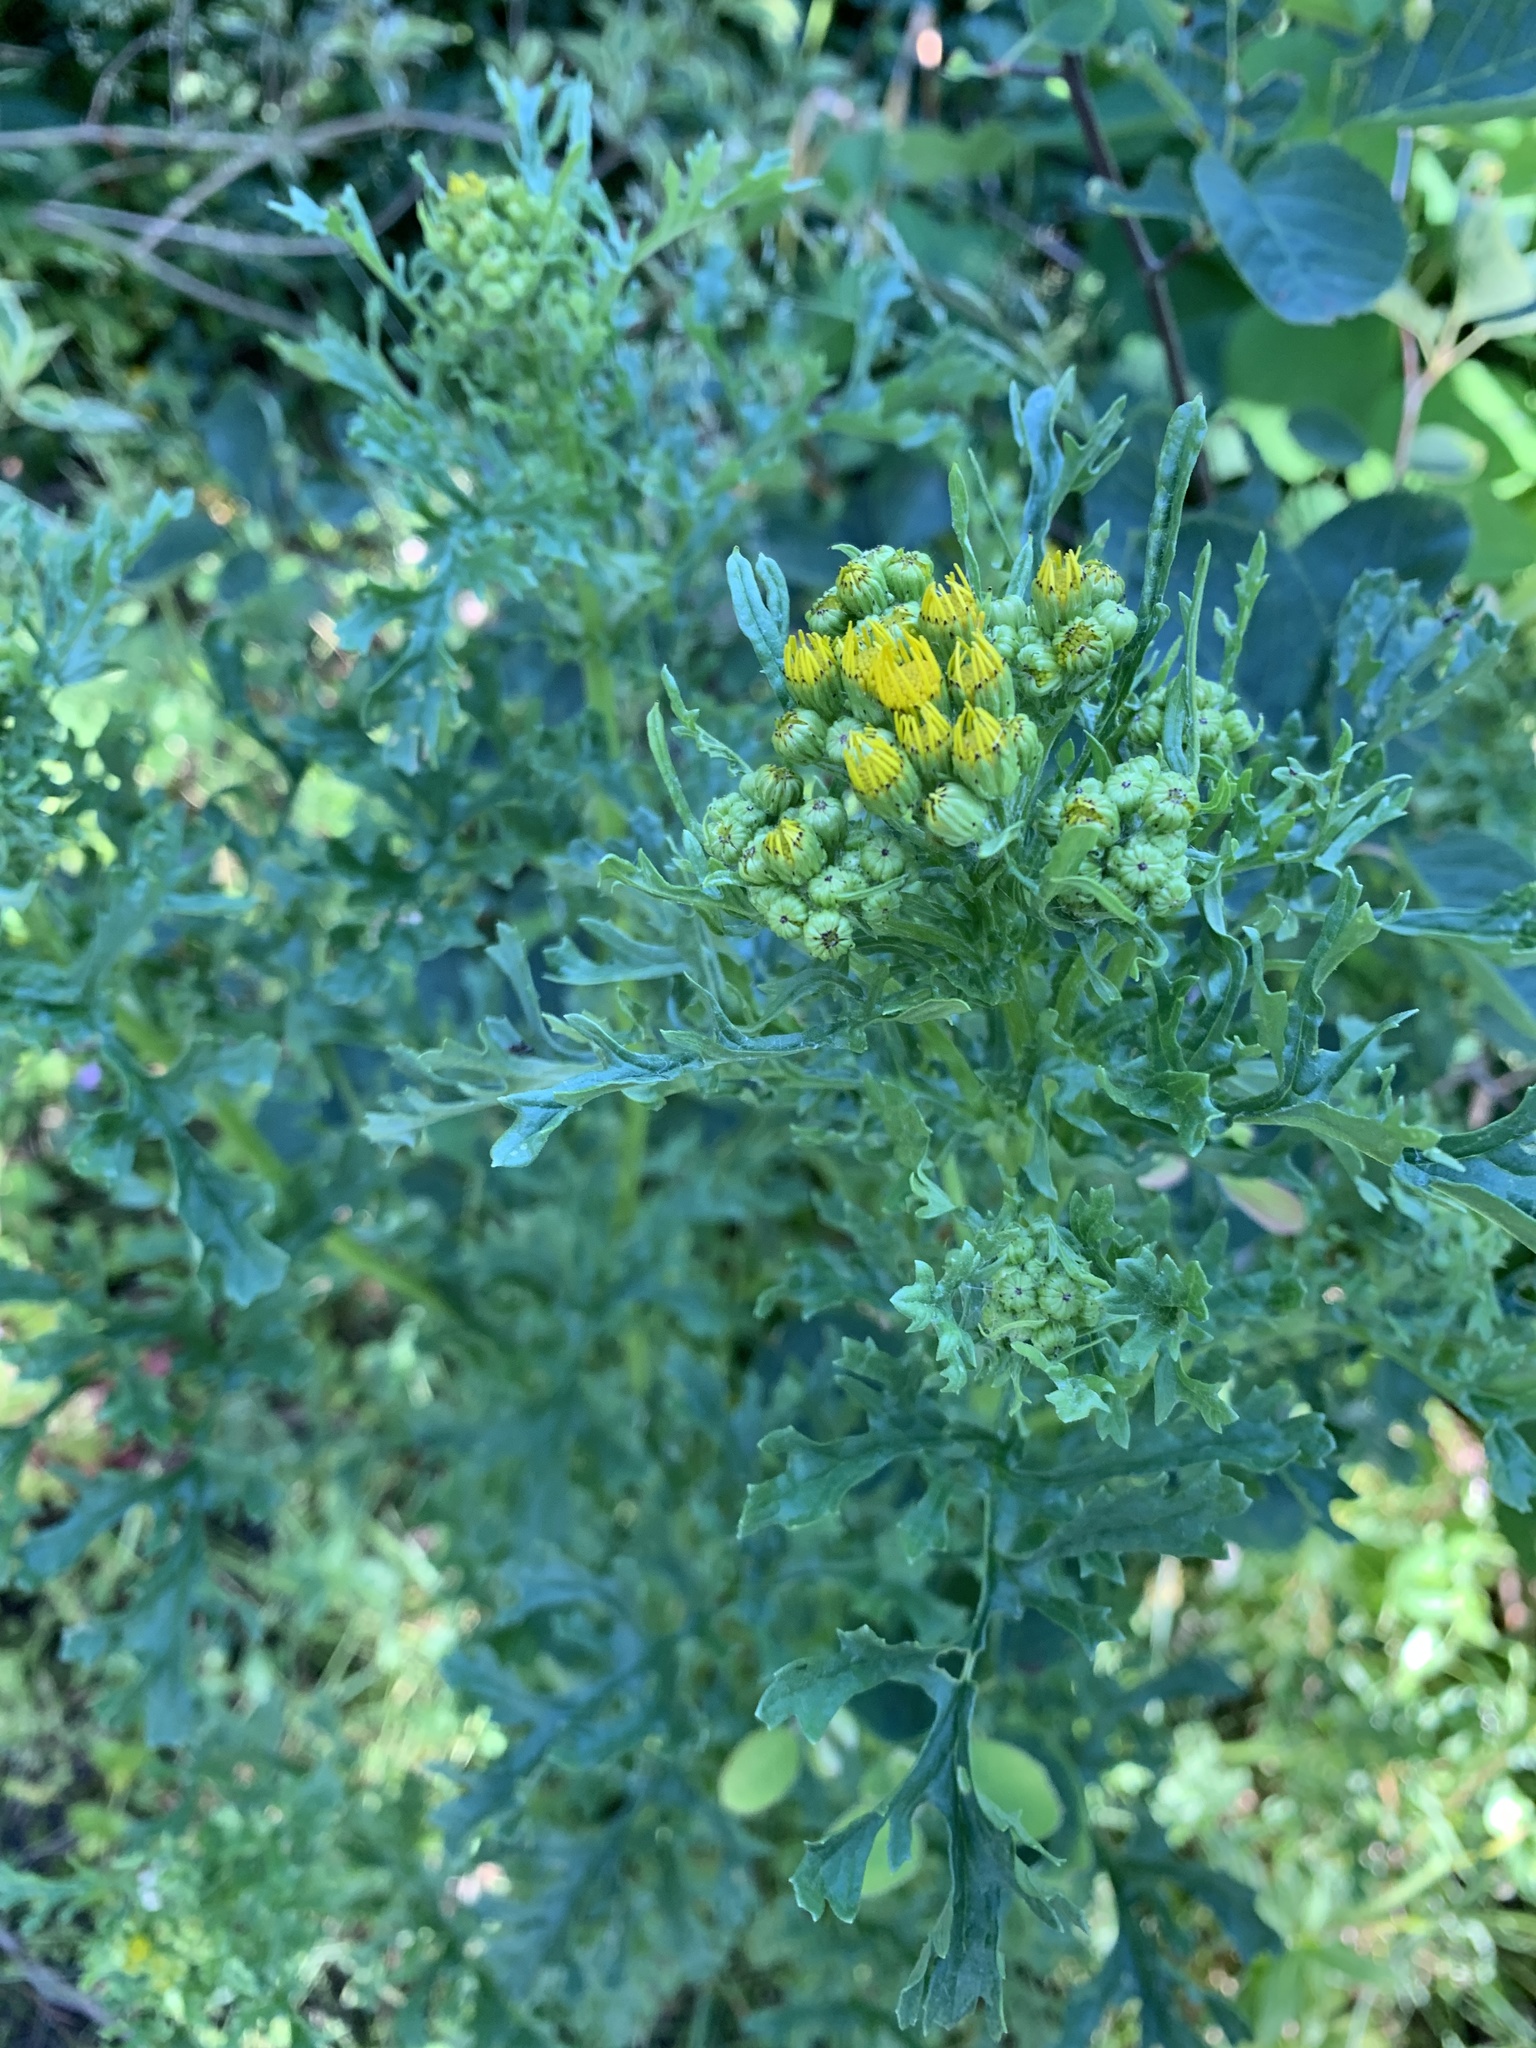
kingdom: Plantae
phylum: Tracheophyta
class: Magnoliopsida
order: Asterales
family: Asteraceae
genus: Jacobaea
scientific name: Jacobaea vulgaris
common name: Stinking willie
